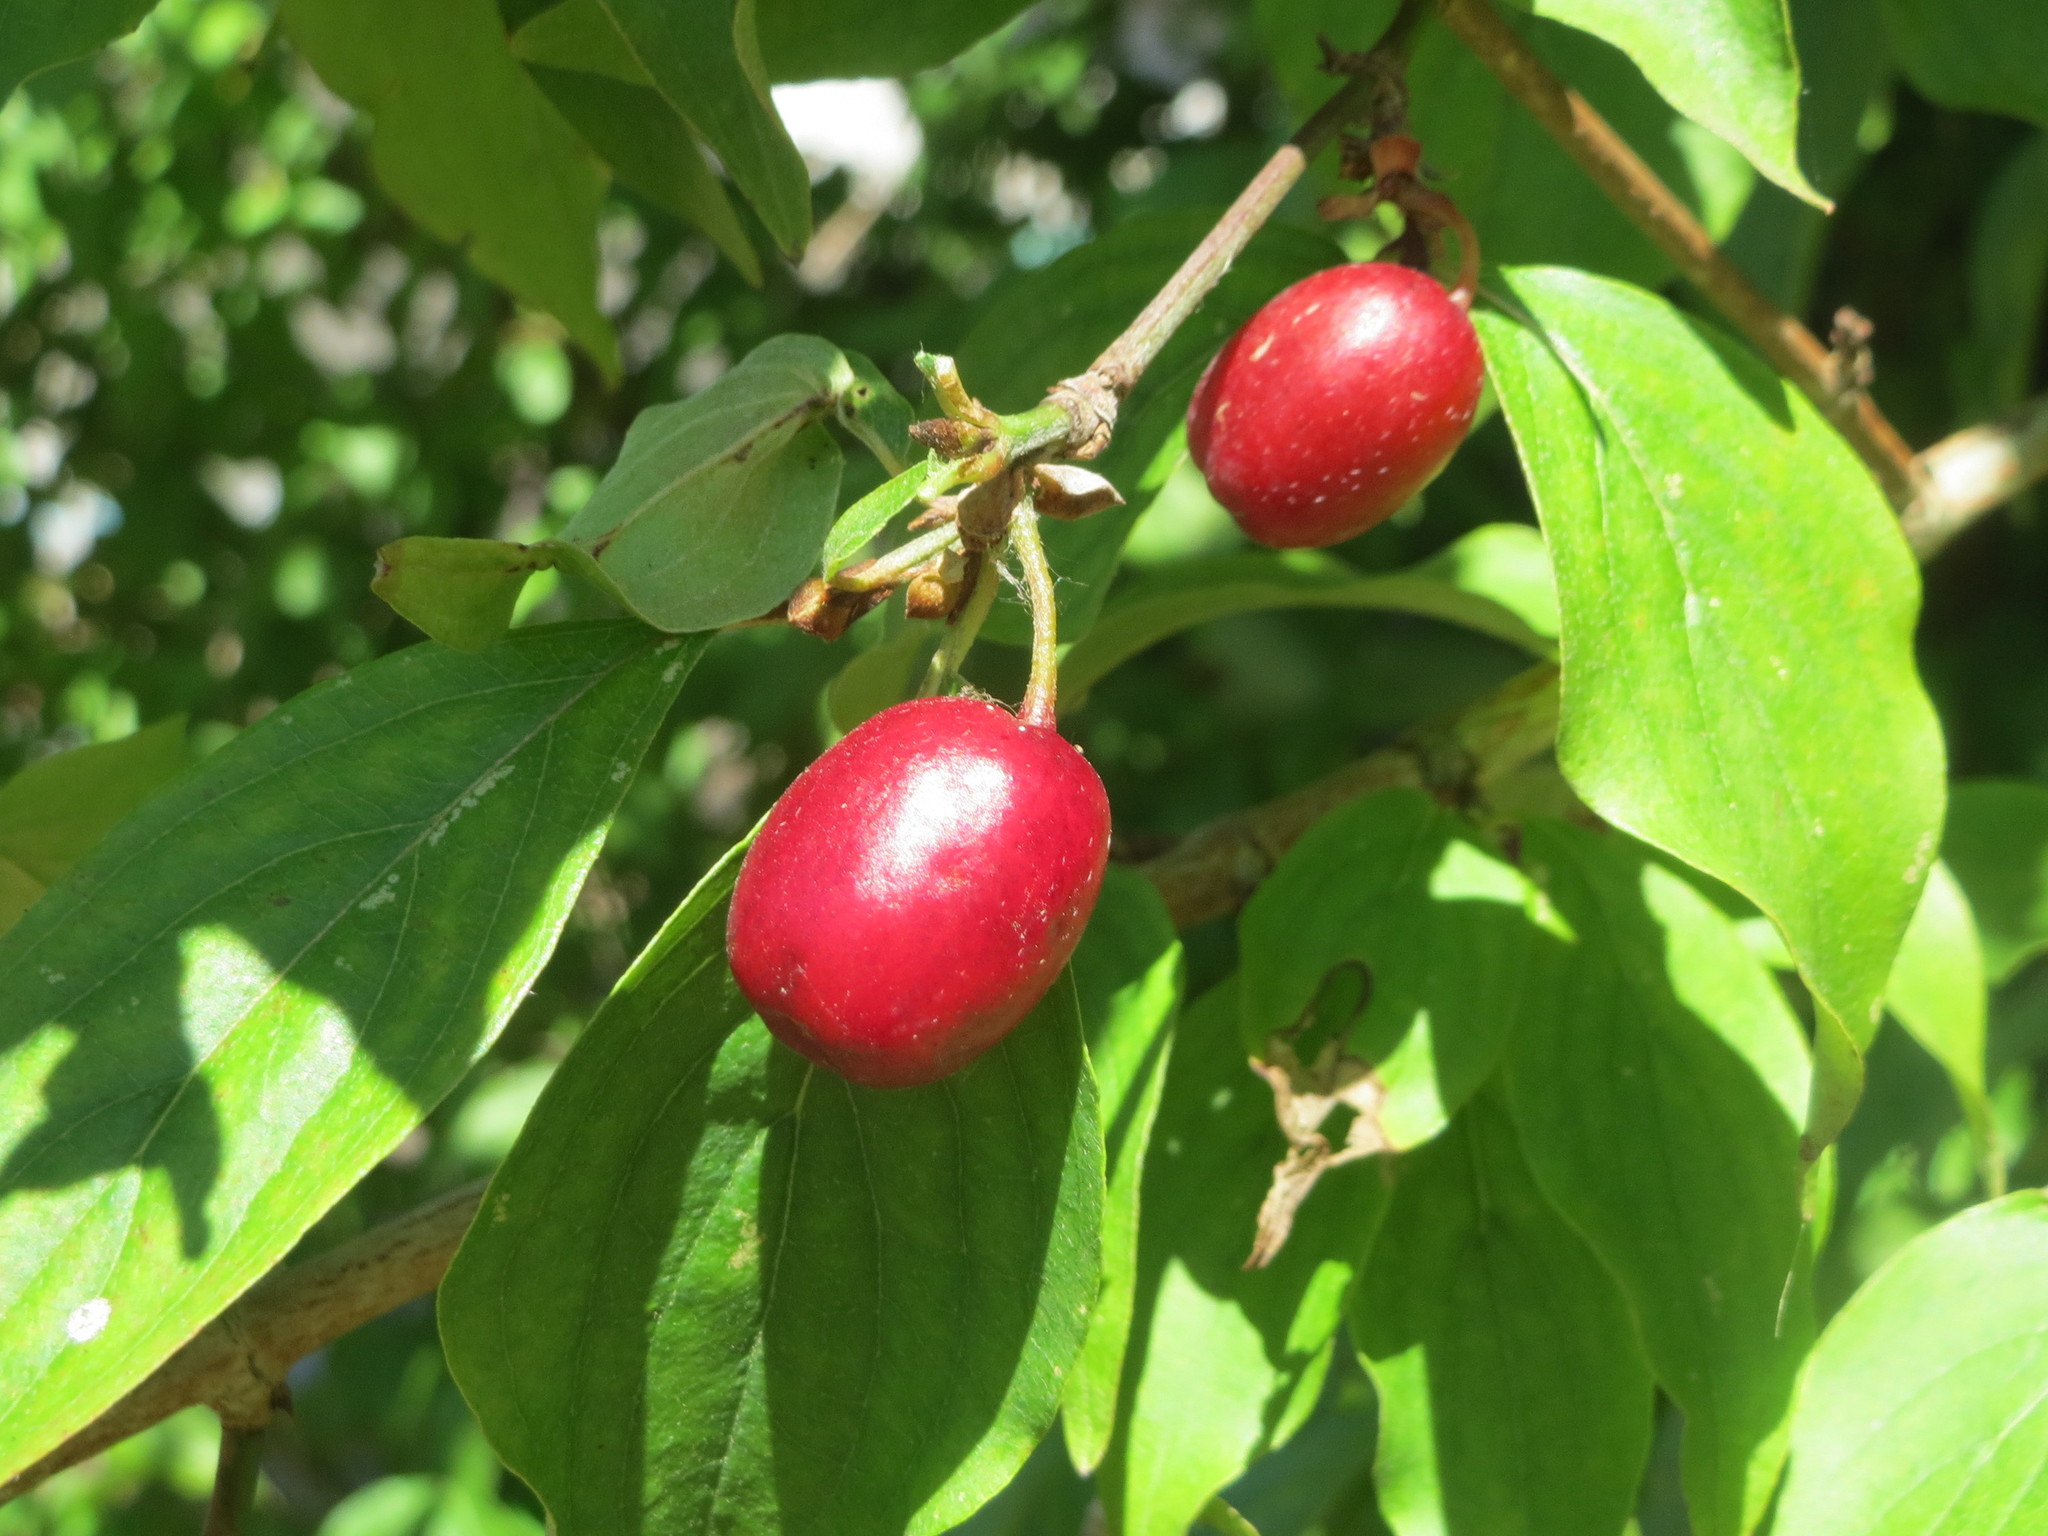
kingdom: Plantae
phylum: Tracheophyta
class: Magnoliopsida
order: Cornales
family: Cornaceae
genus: Cornus
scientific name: Cornus mas
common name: Cornelian-cherry
